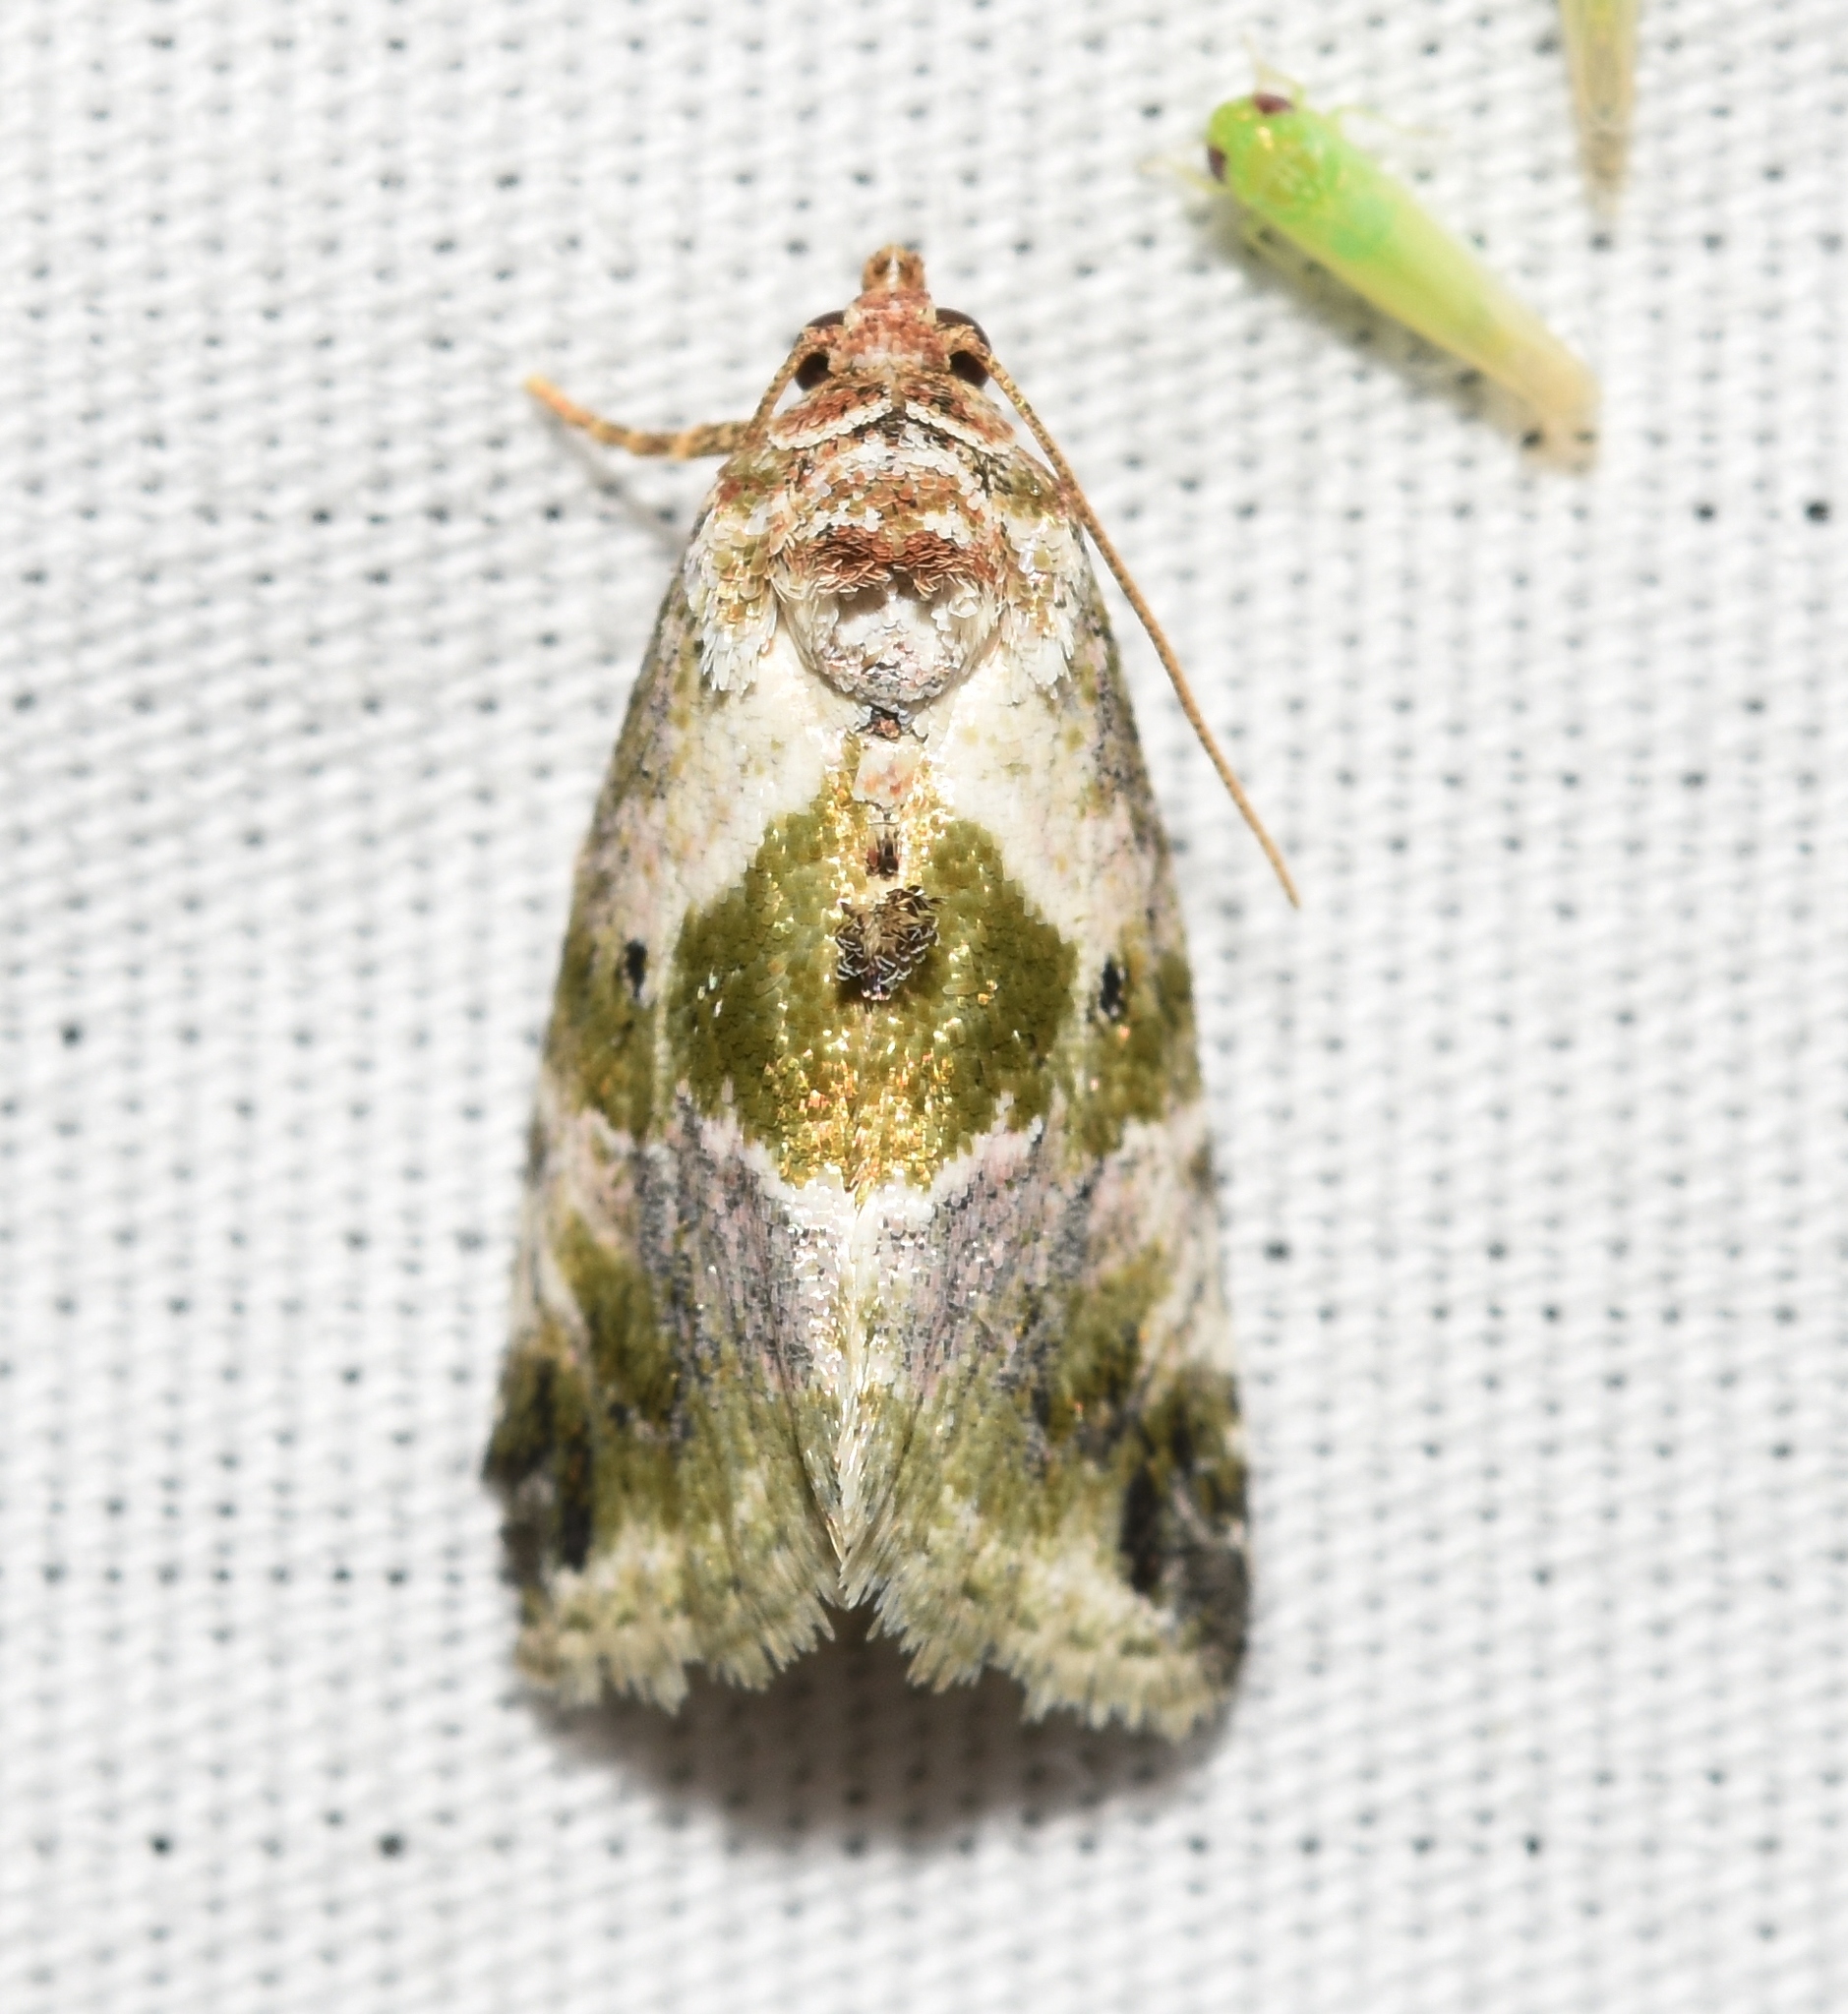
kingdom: Animalia
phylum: Arthropoda
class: Insecta
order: Lepidoptera
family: Noctuidae
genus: Maliattha
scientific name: Maliattha synochitis
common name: Black-dotted glyph
